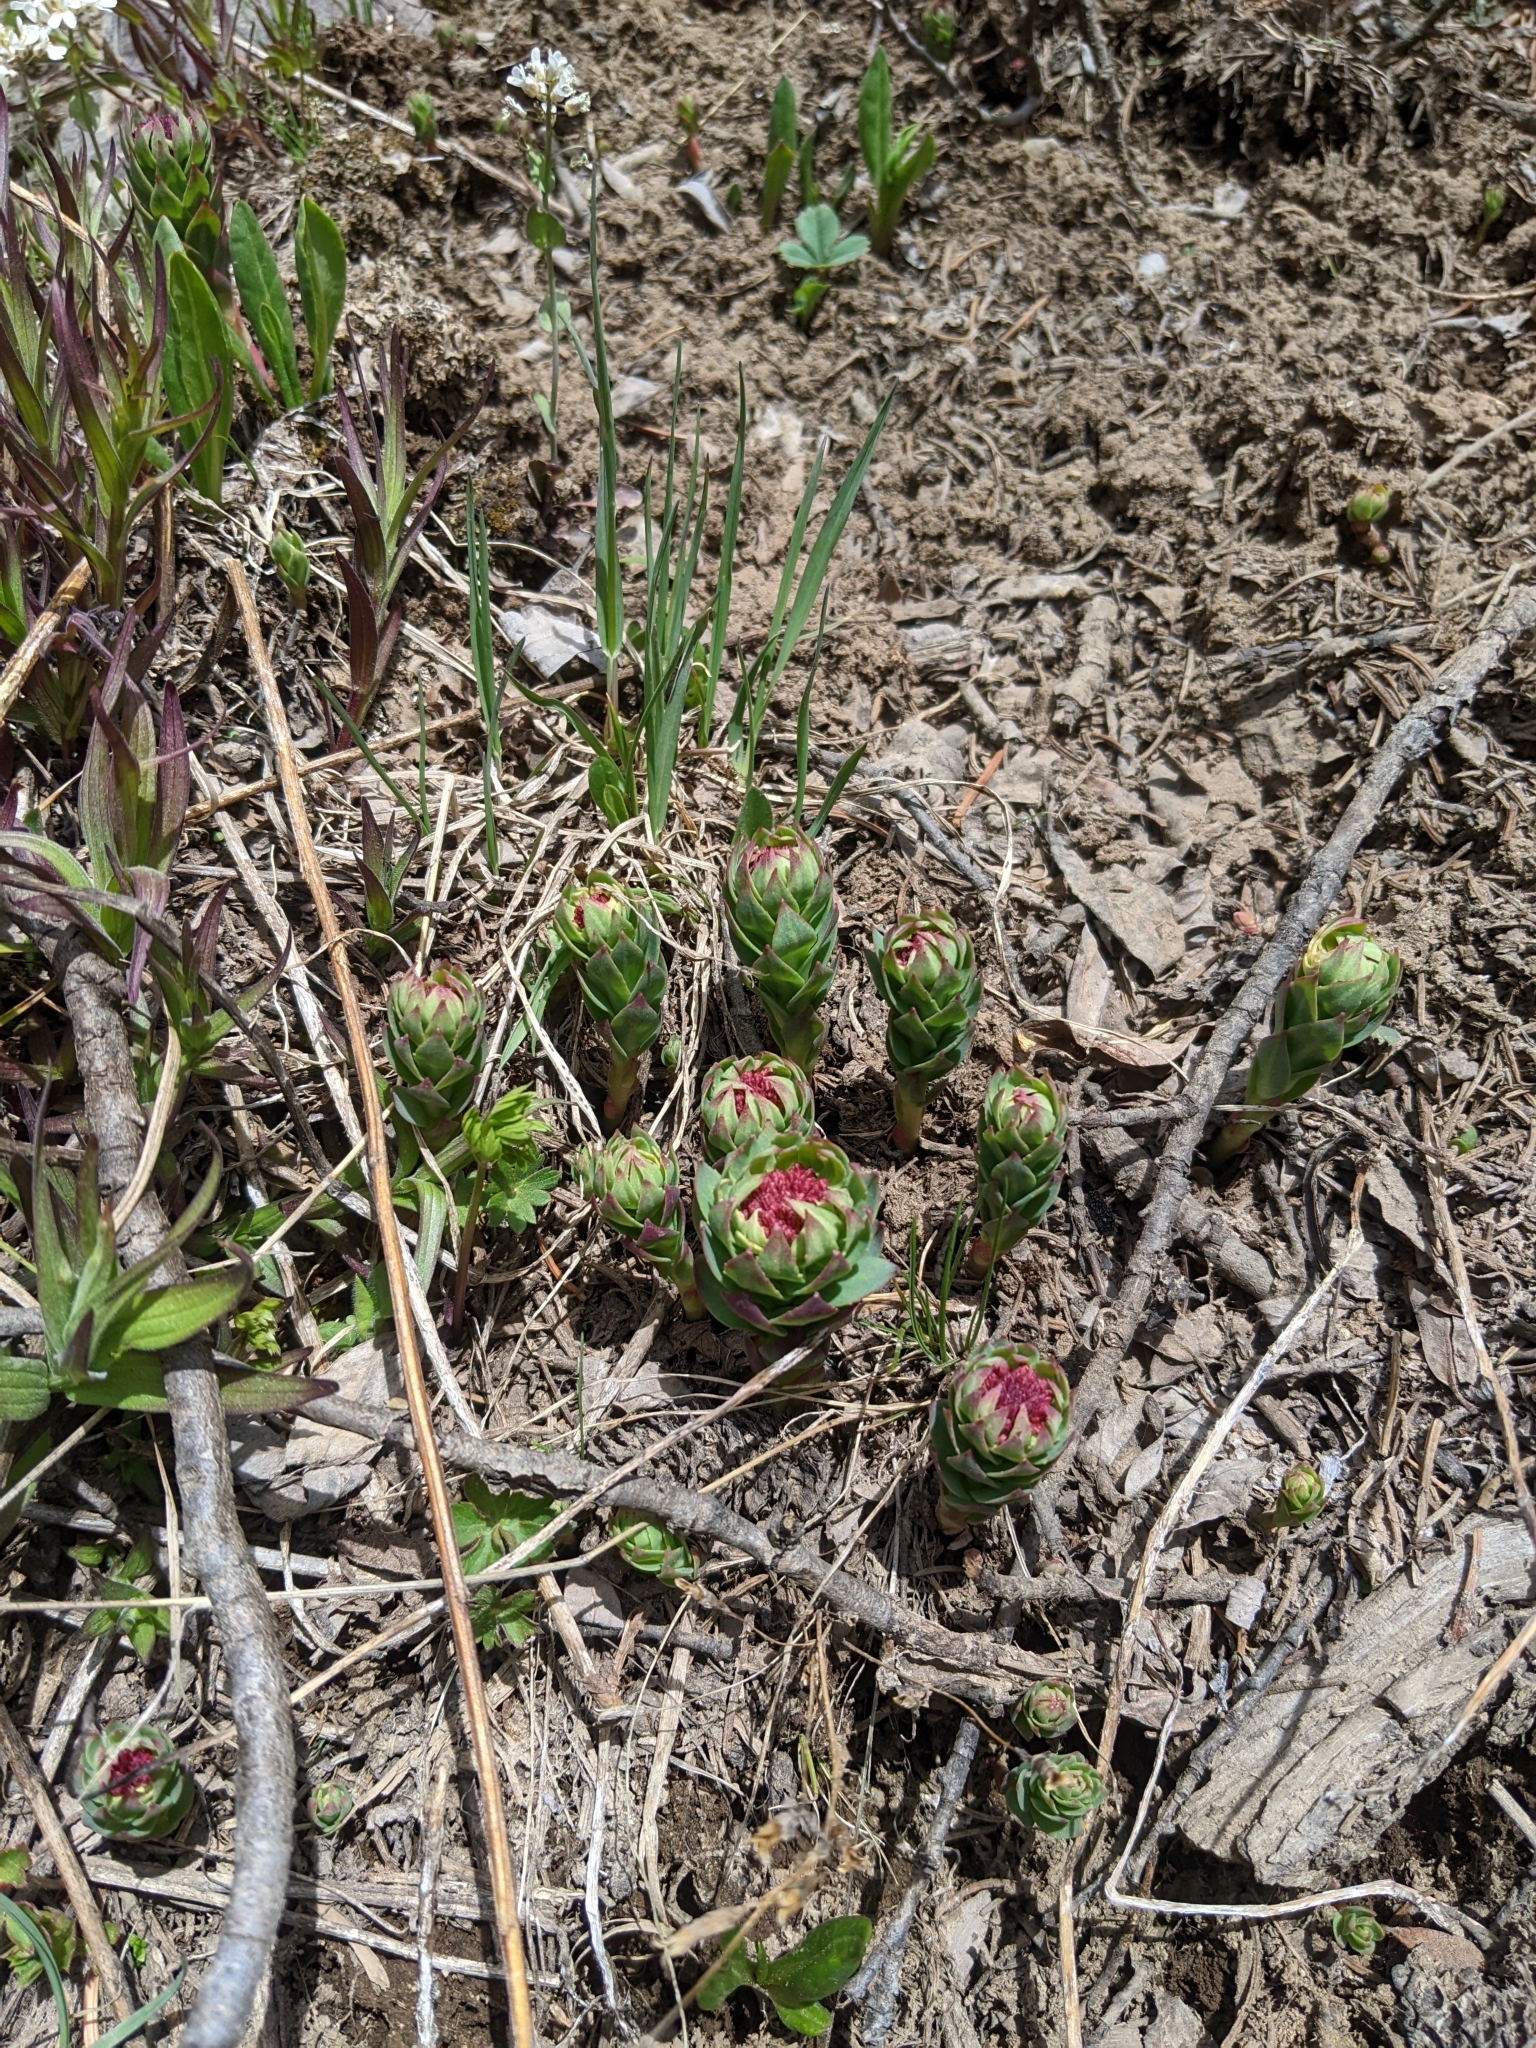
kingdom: Plantae
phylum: Tracheophyta
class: Magnoliopsida
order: Saxifragales
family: Crassulaceae
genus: Rhodiola
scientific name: Rhodiola integrifolia
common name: Western roseroot
